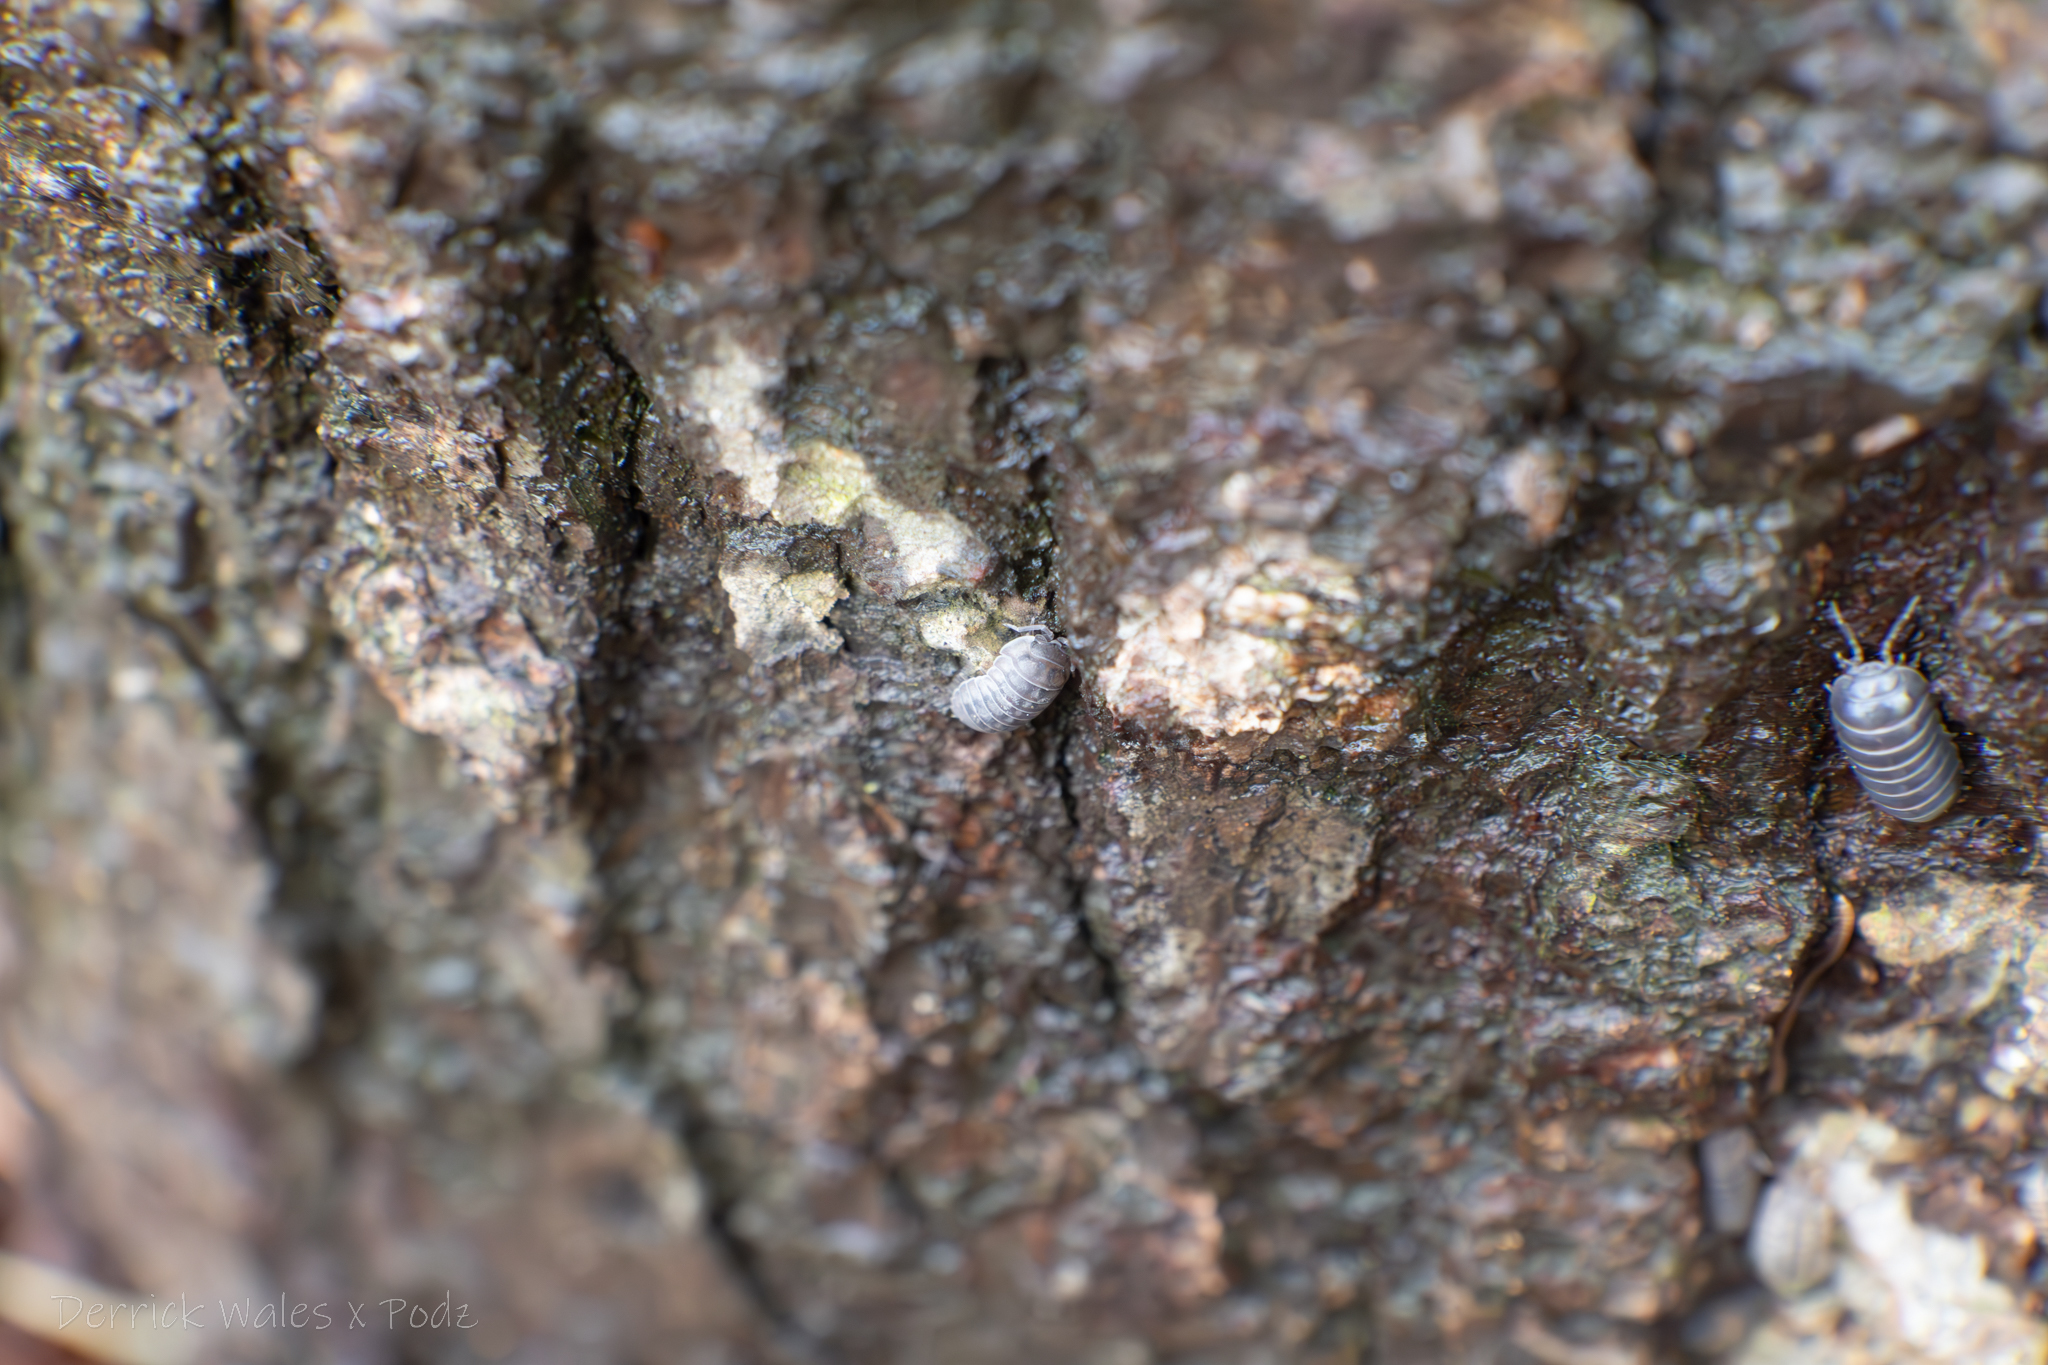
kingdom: Animalia
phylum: Arthropoda
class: Malacostraca
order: Isopoda
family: Armadillidiidae
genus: Armadillidium
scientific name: Armadillidium nasatum
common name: Isopod
